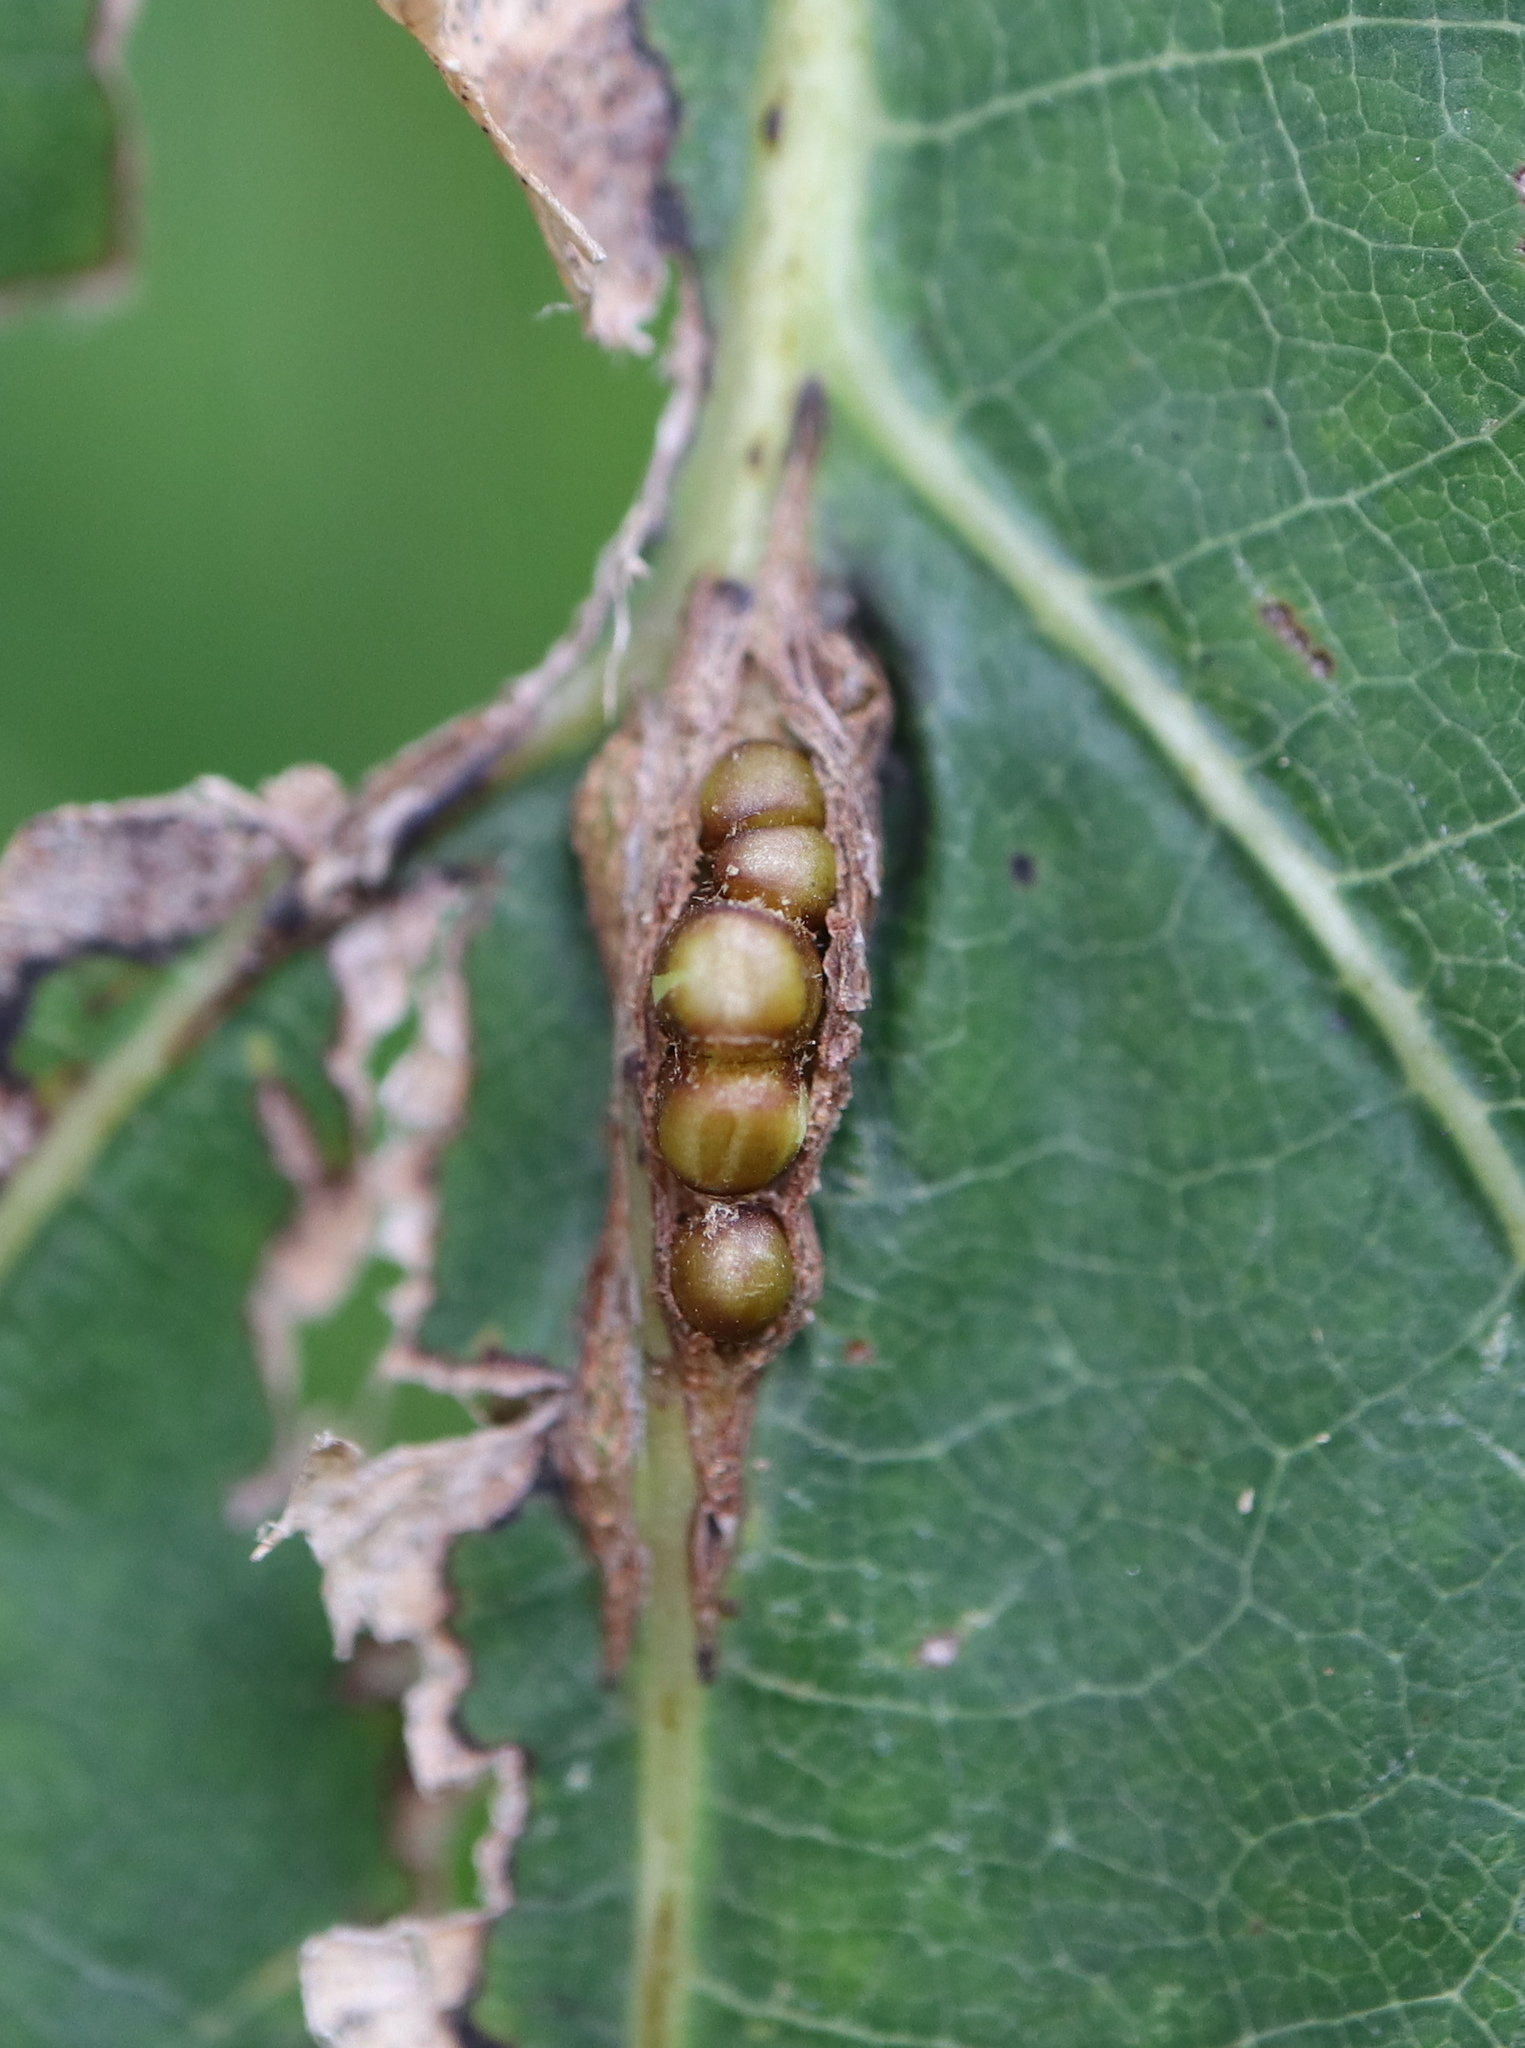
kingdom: Animalia
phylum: Arthropoda
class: Insecta
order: Hymenoptera
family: Cynipidae
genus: Kokkocynips
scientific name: Kokkocynips decidua
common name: Oak wheat gall
